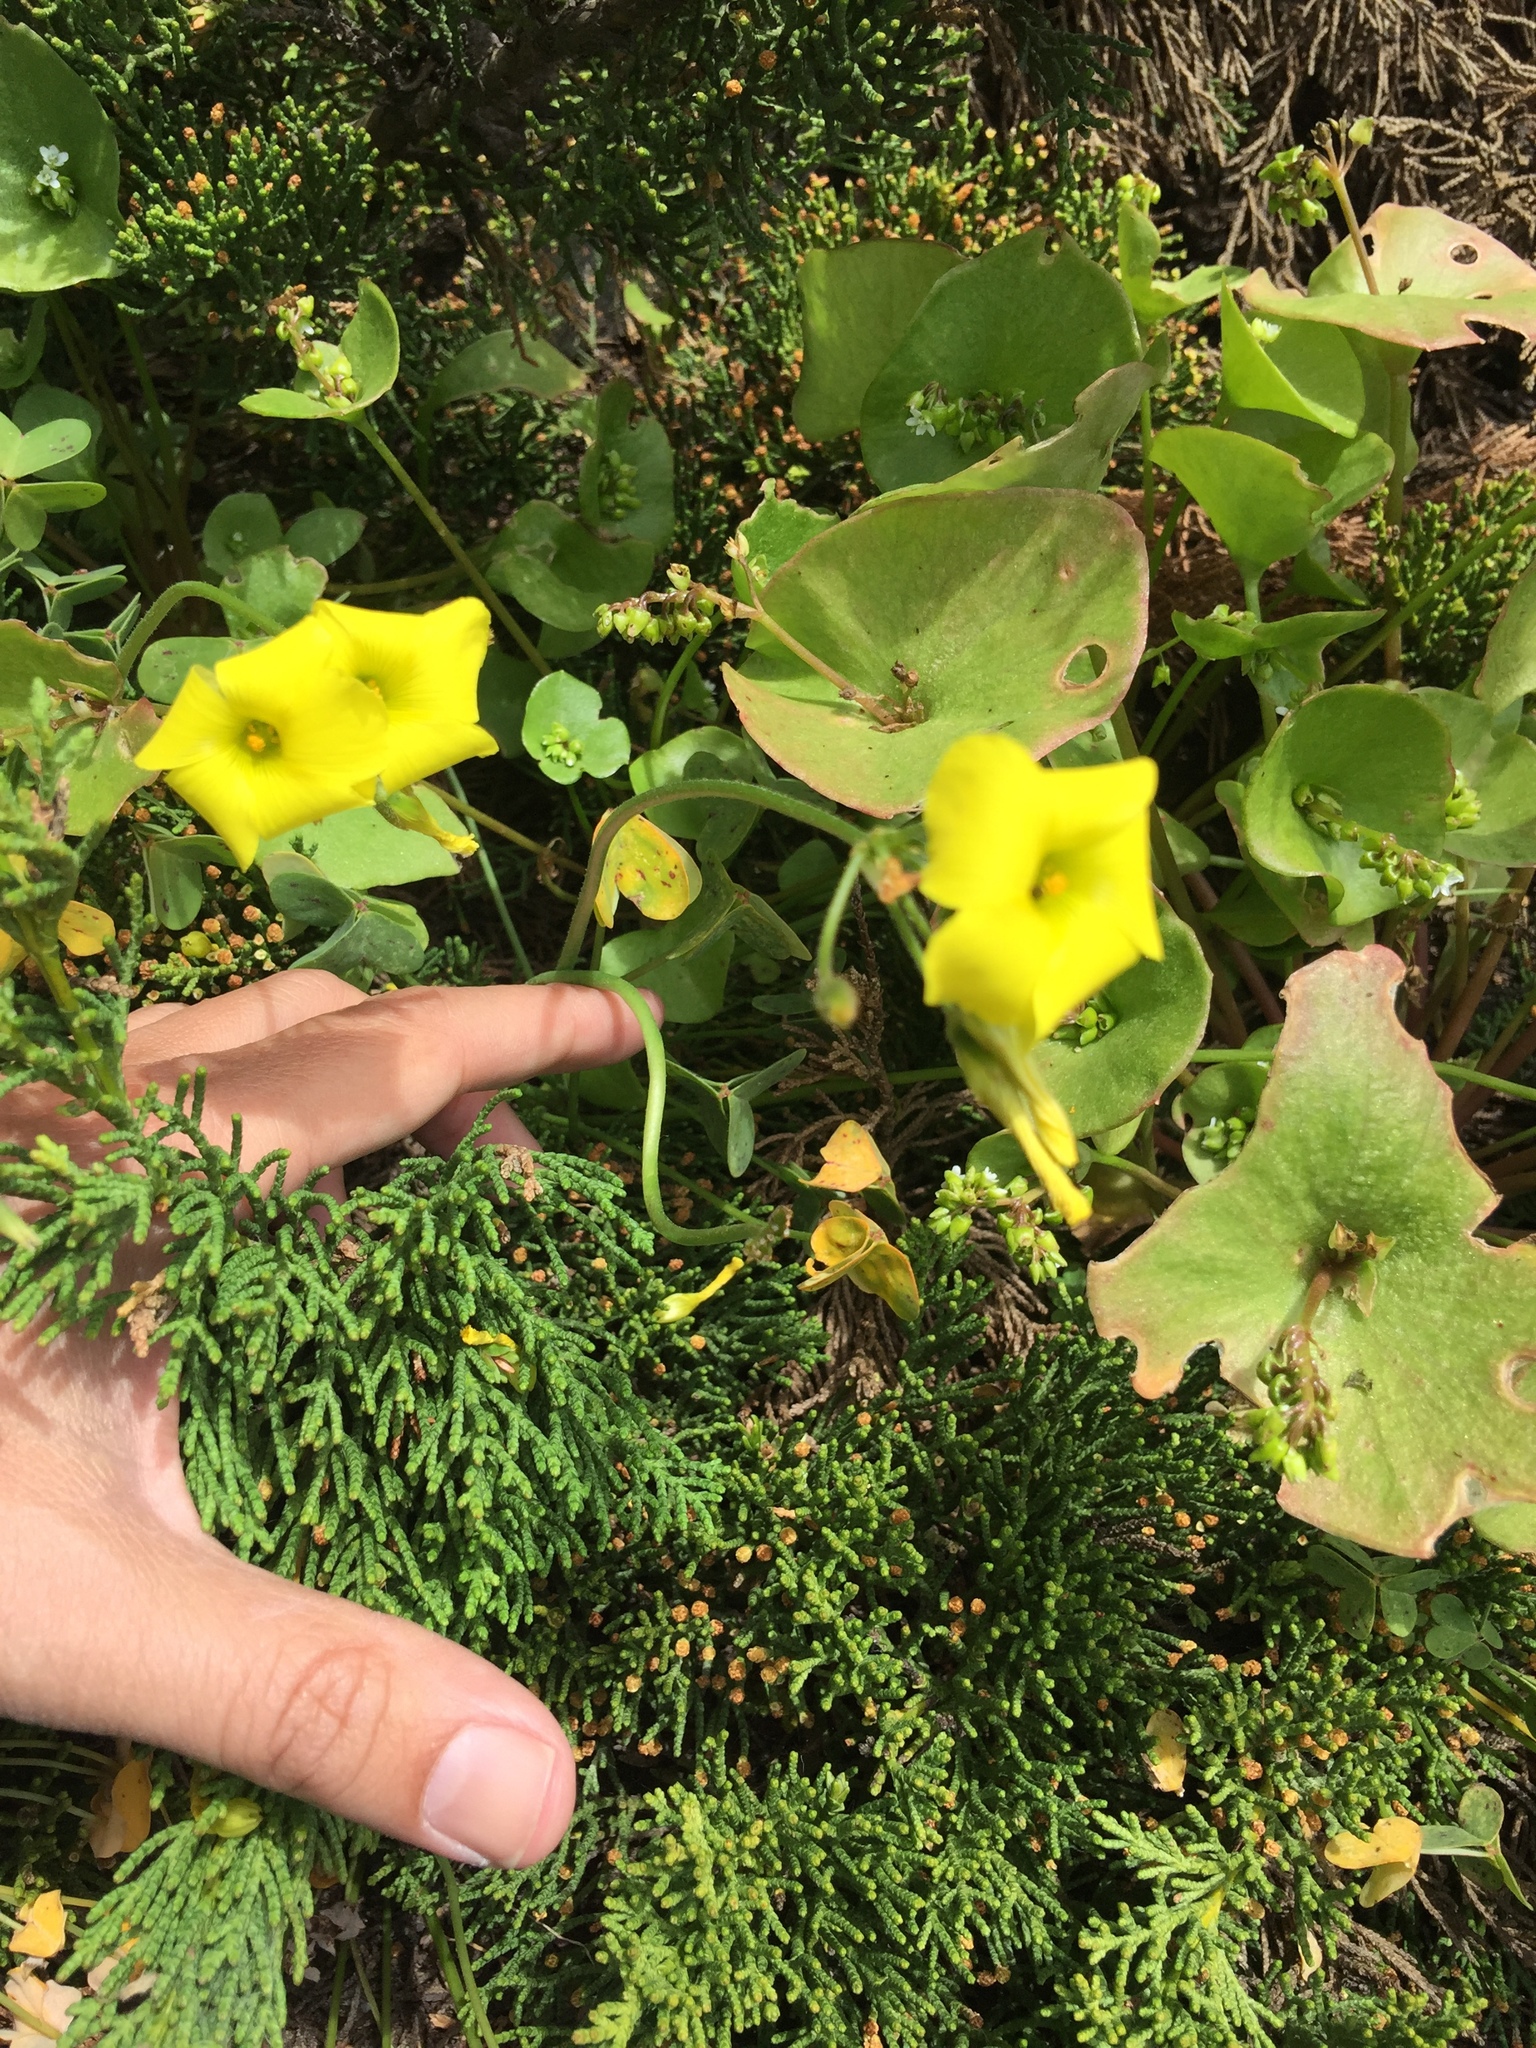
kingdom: Plantae
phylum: Tracheophyta
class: Magnoliopsida
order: Caryophyllales
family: Montiaceae
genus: Claytonia
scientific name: Claytonia perfoliata
